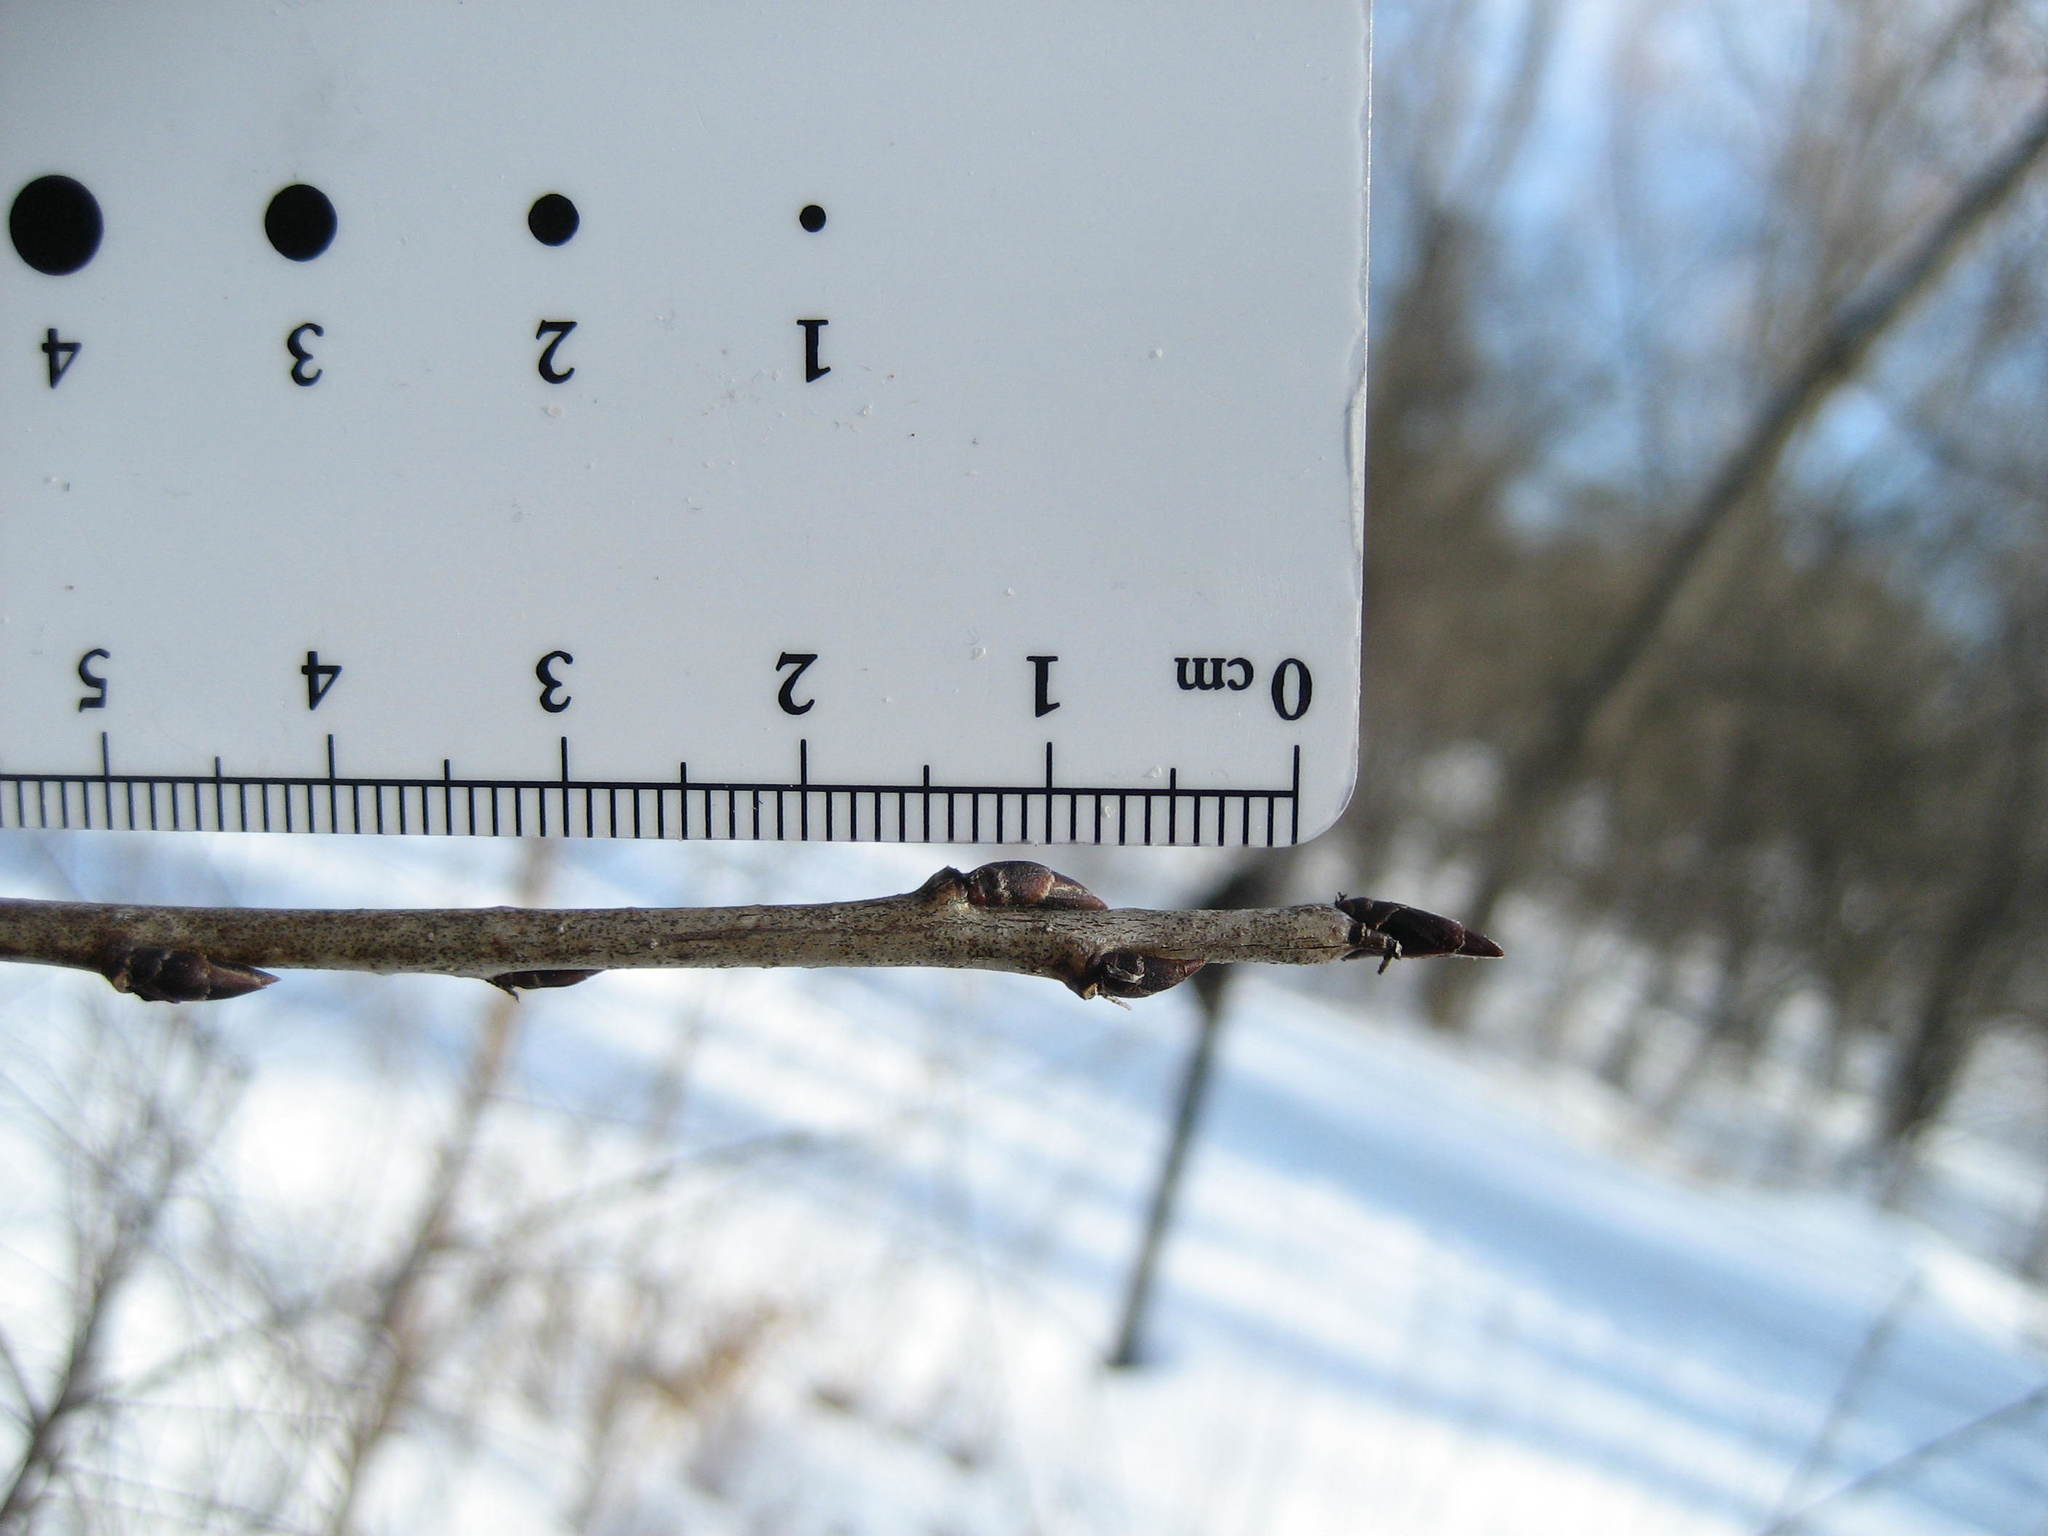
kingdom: Plantae
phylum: Tracheophyta
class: Magnoliopsida
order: Rosales
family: Rhamnaceae
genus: Rhamnus
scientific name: Rhamnus cathartica
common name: Common buckthorn
